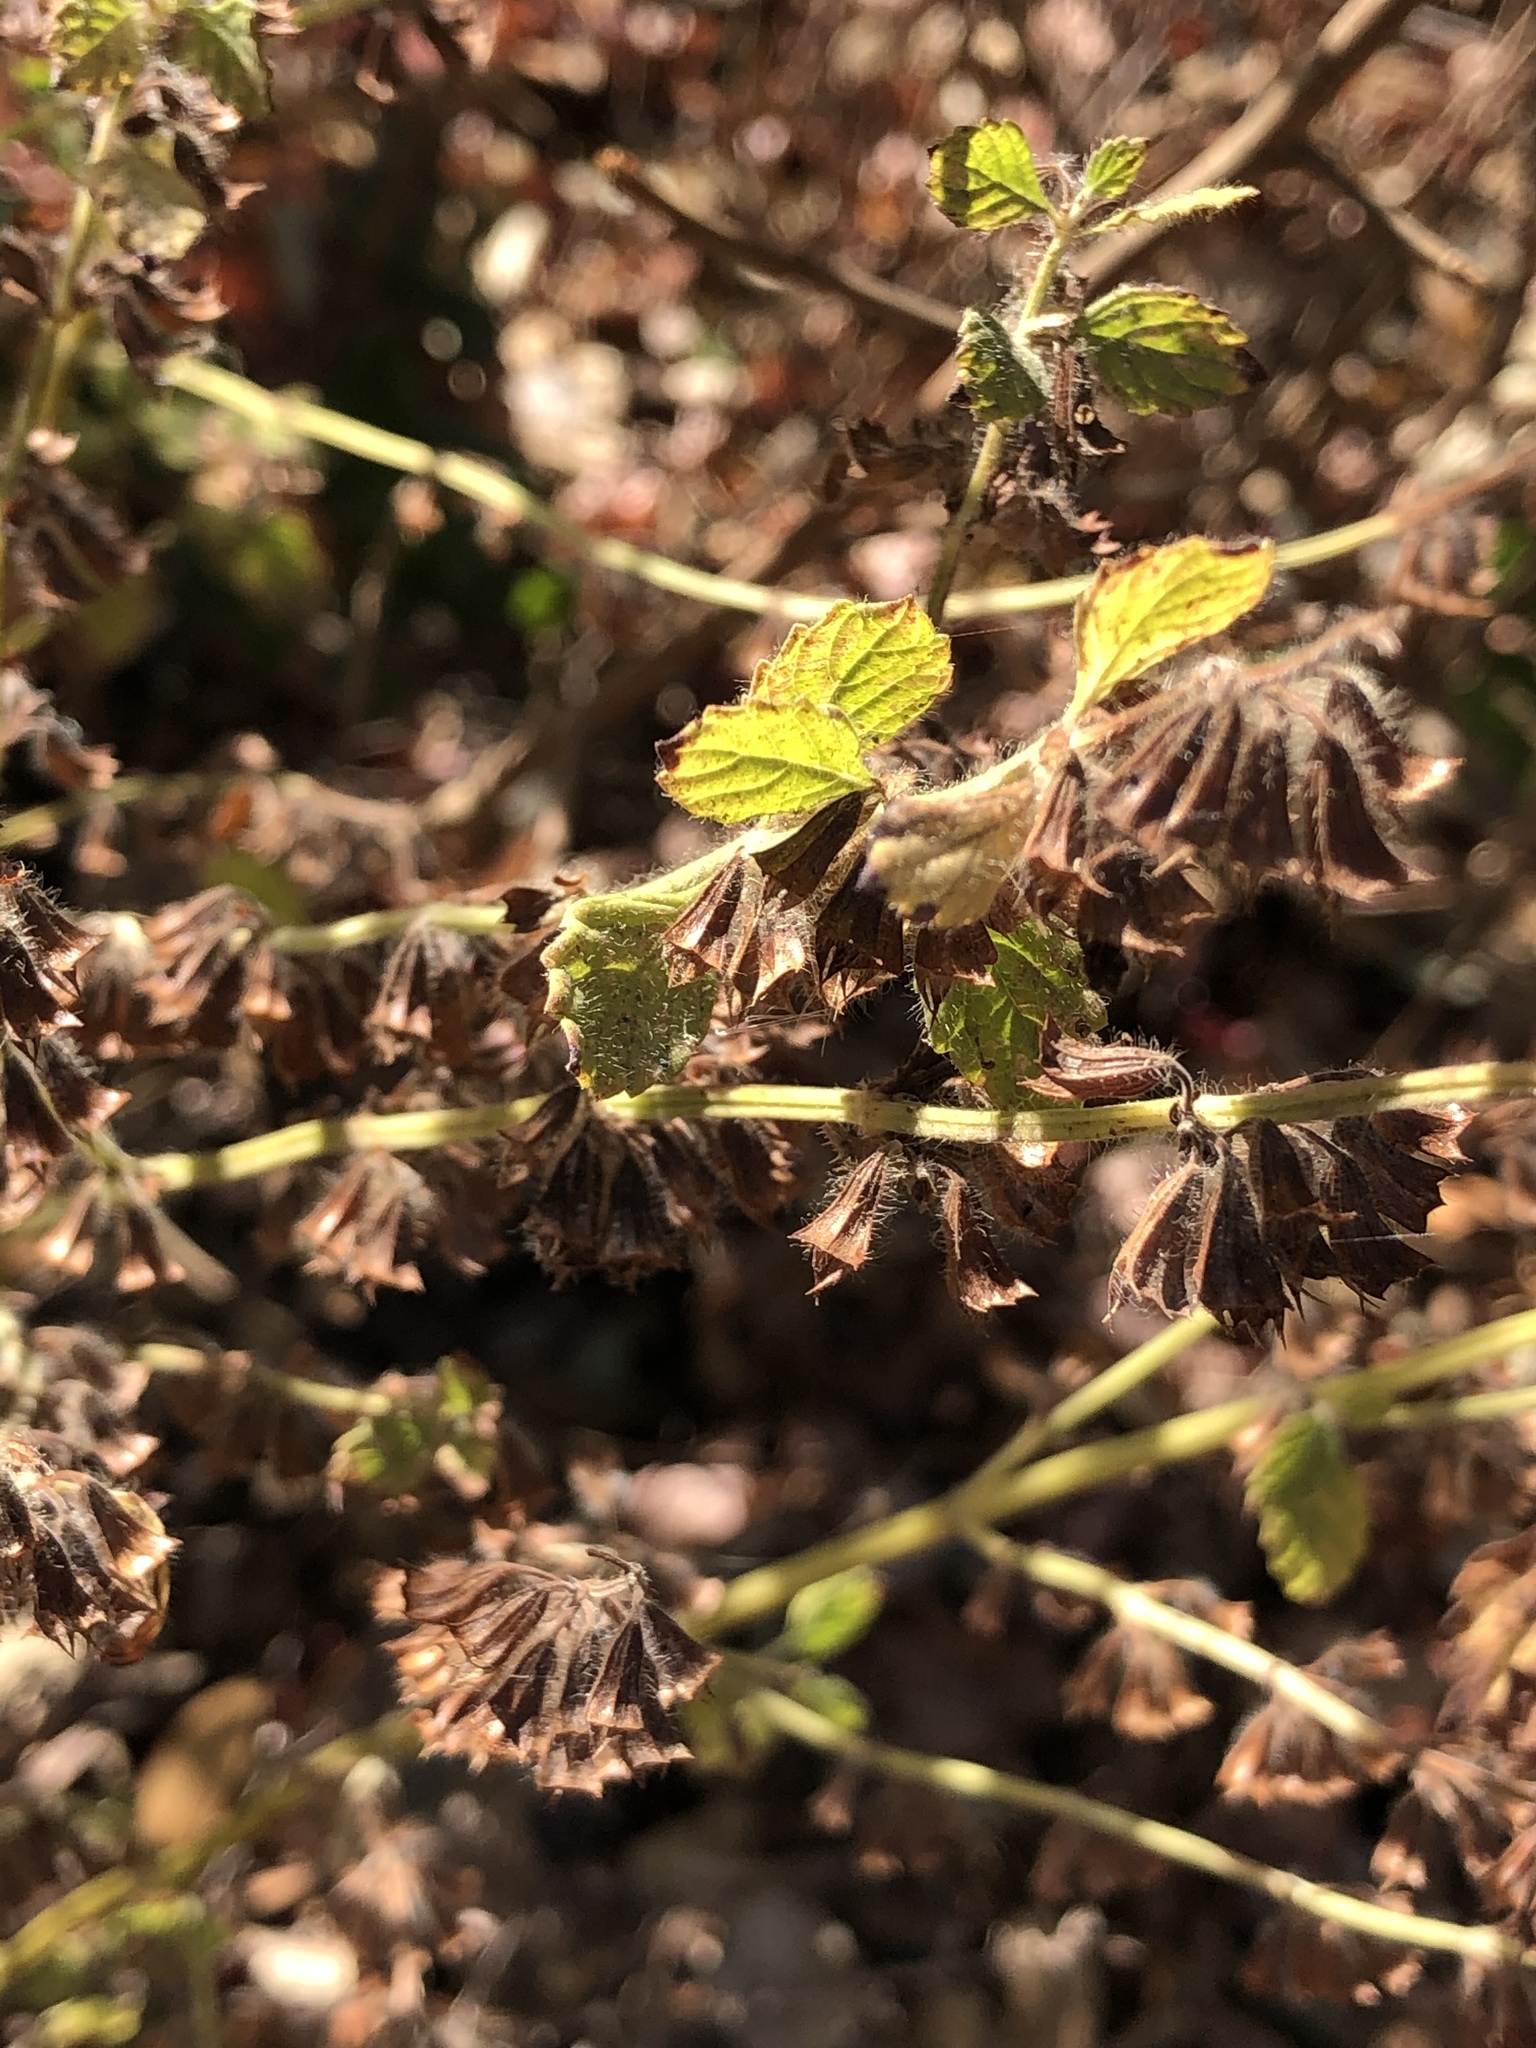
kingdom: Plantae
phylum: Tracheophyta
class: Magnoliopsida
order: Lamiales
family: Lamiaceae
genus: Melissa
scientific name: Melissa officinalis
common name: Balm
